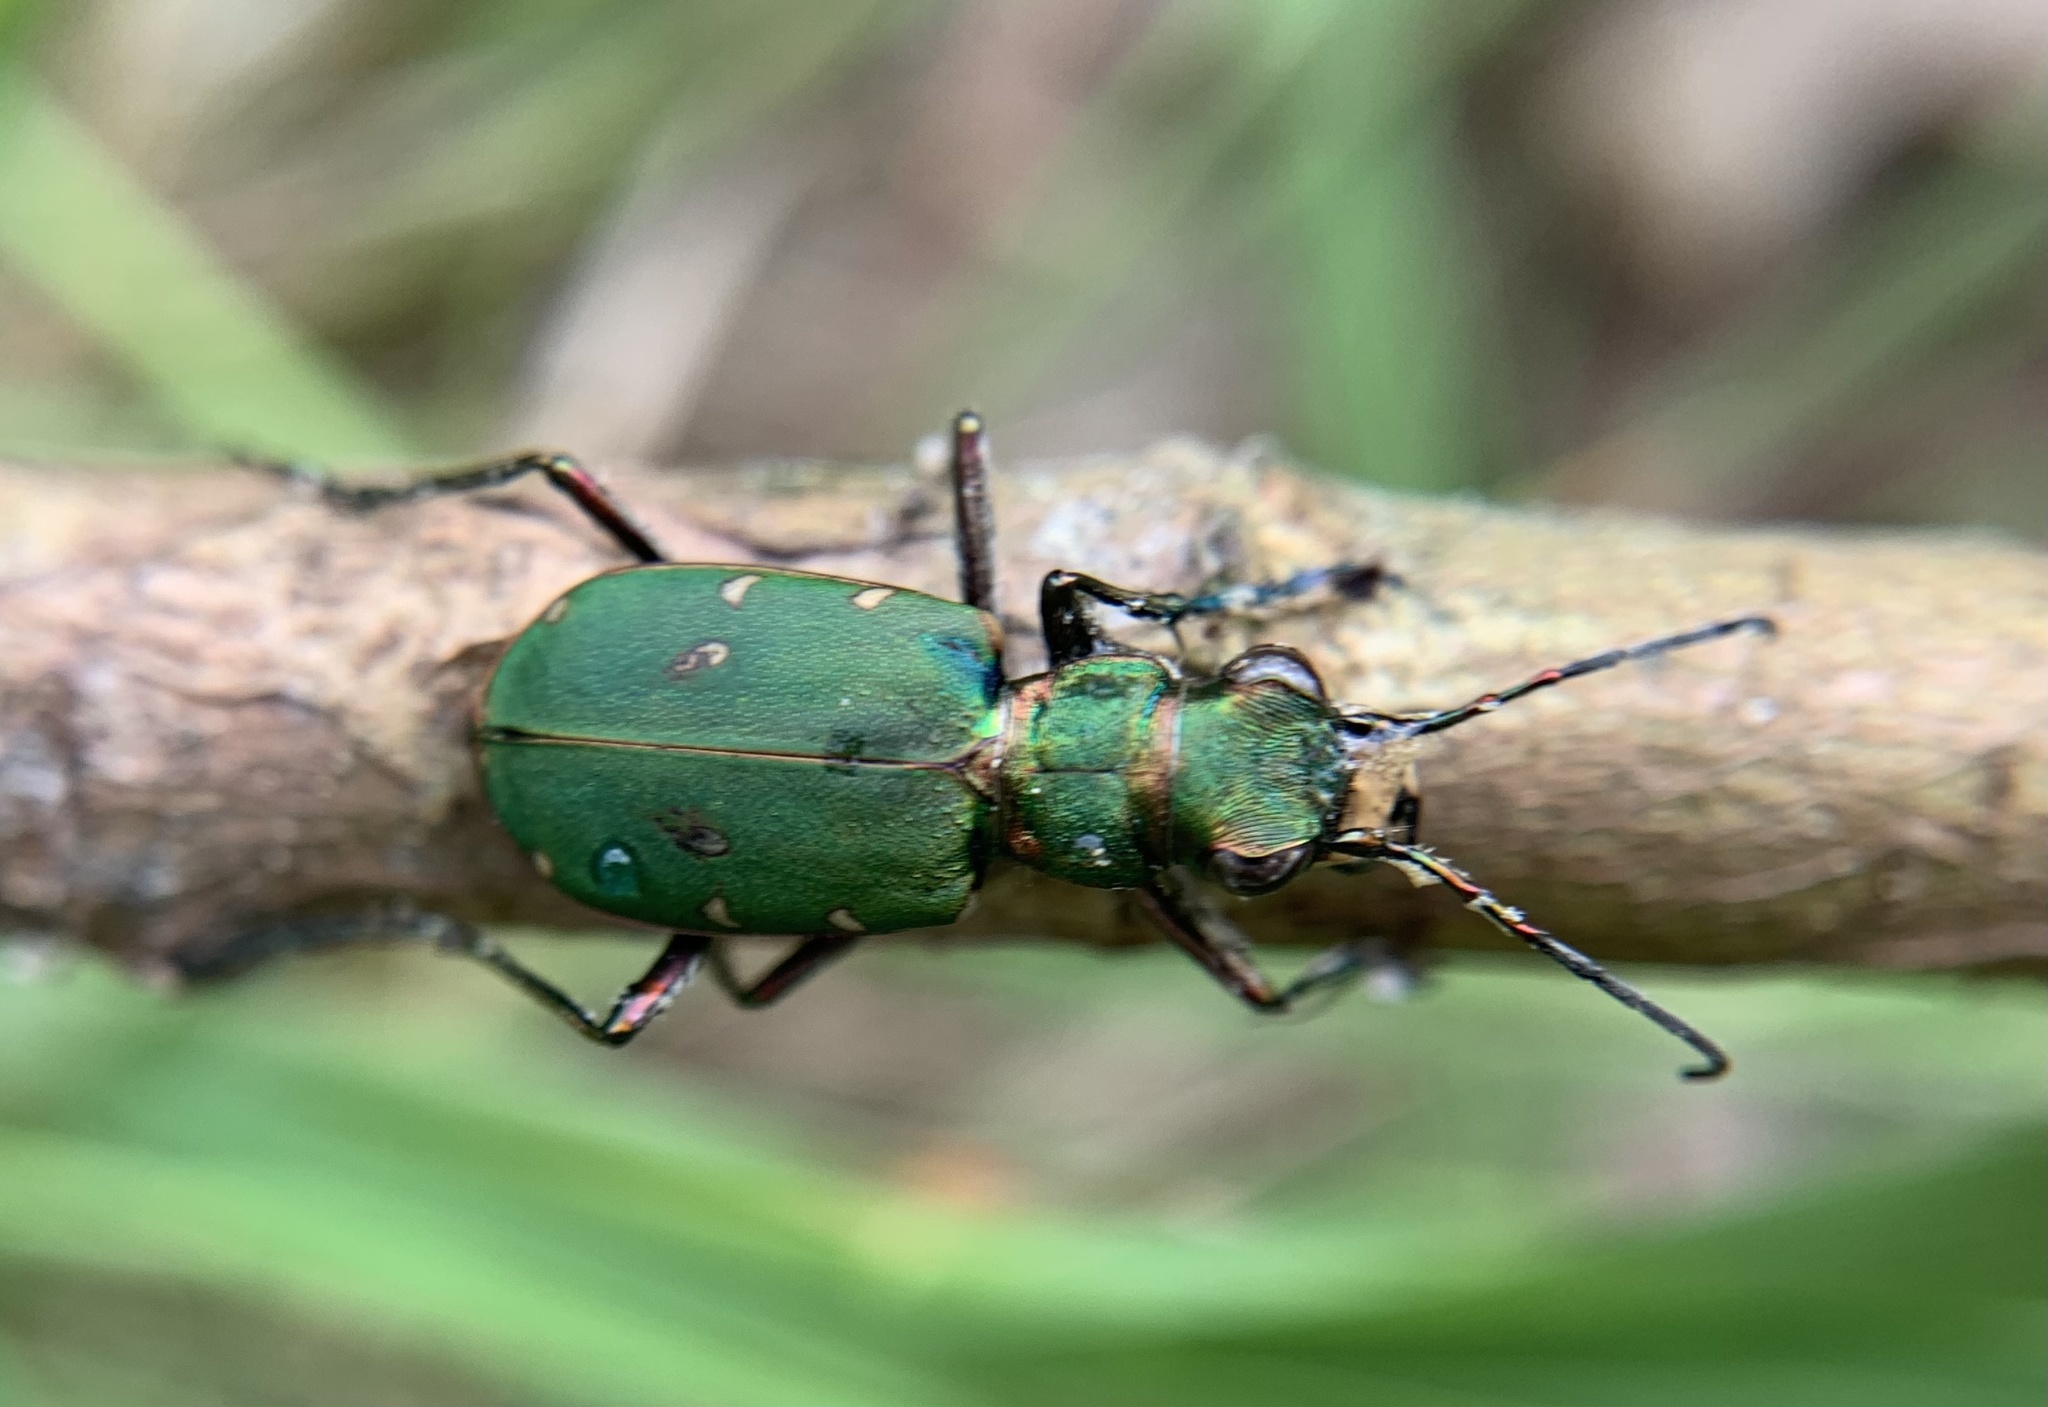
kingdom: Animalia
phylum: Arthropoda
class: Insecta
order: Coleoptera
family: Carabidae
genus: Cicindela
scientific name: Cicindela campestris
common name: Common tiger beetle
